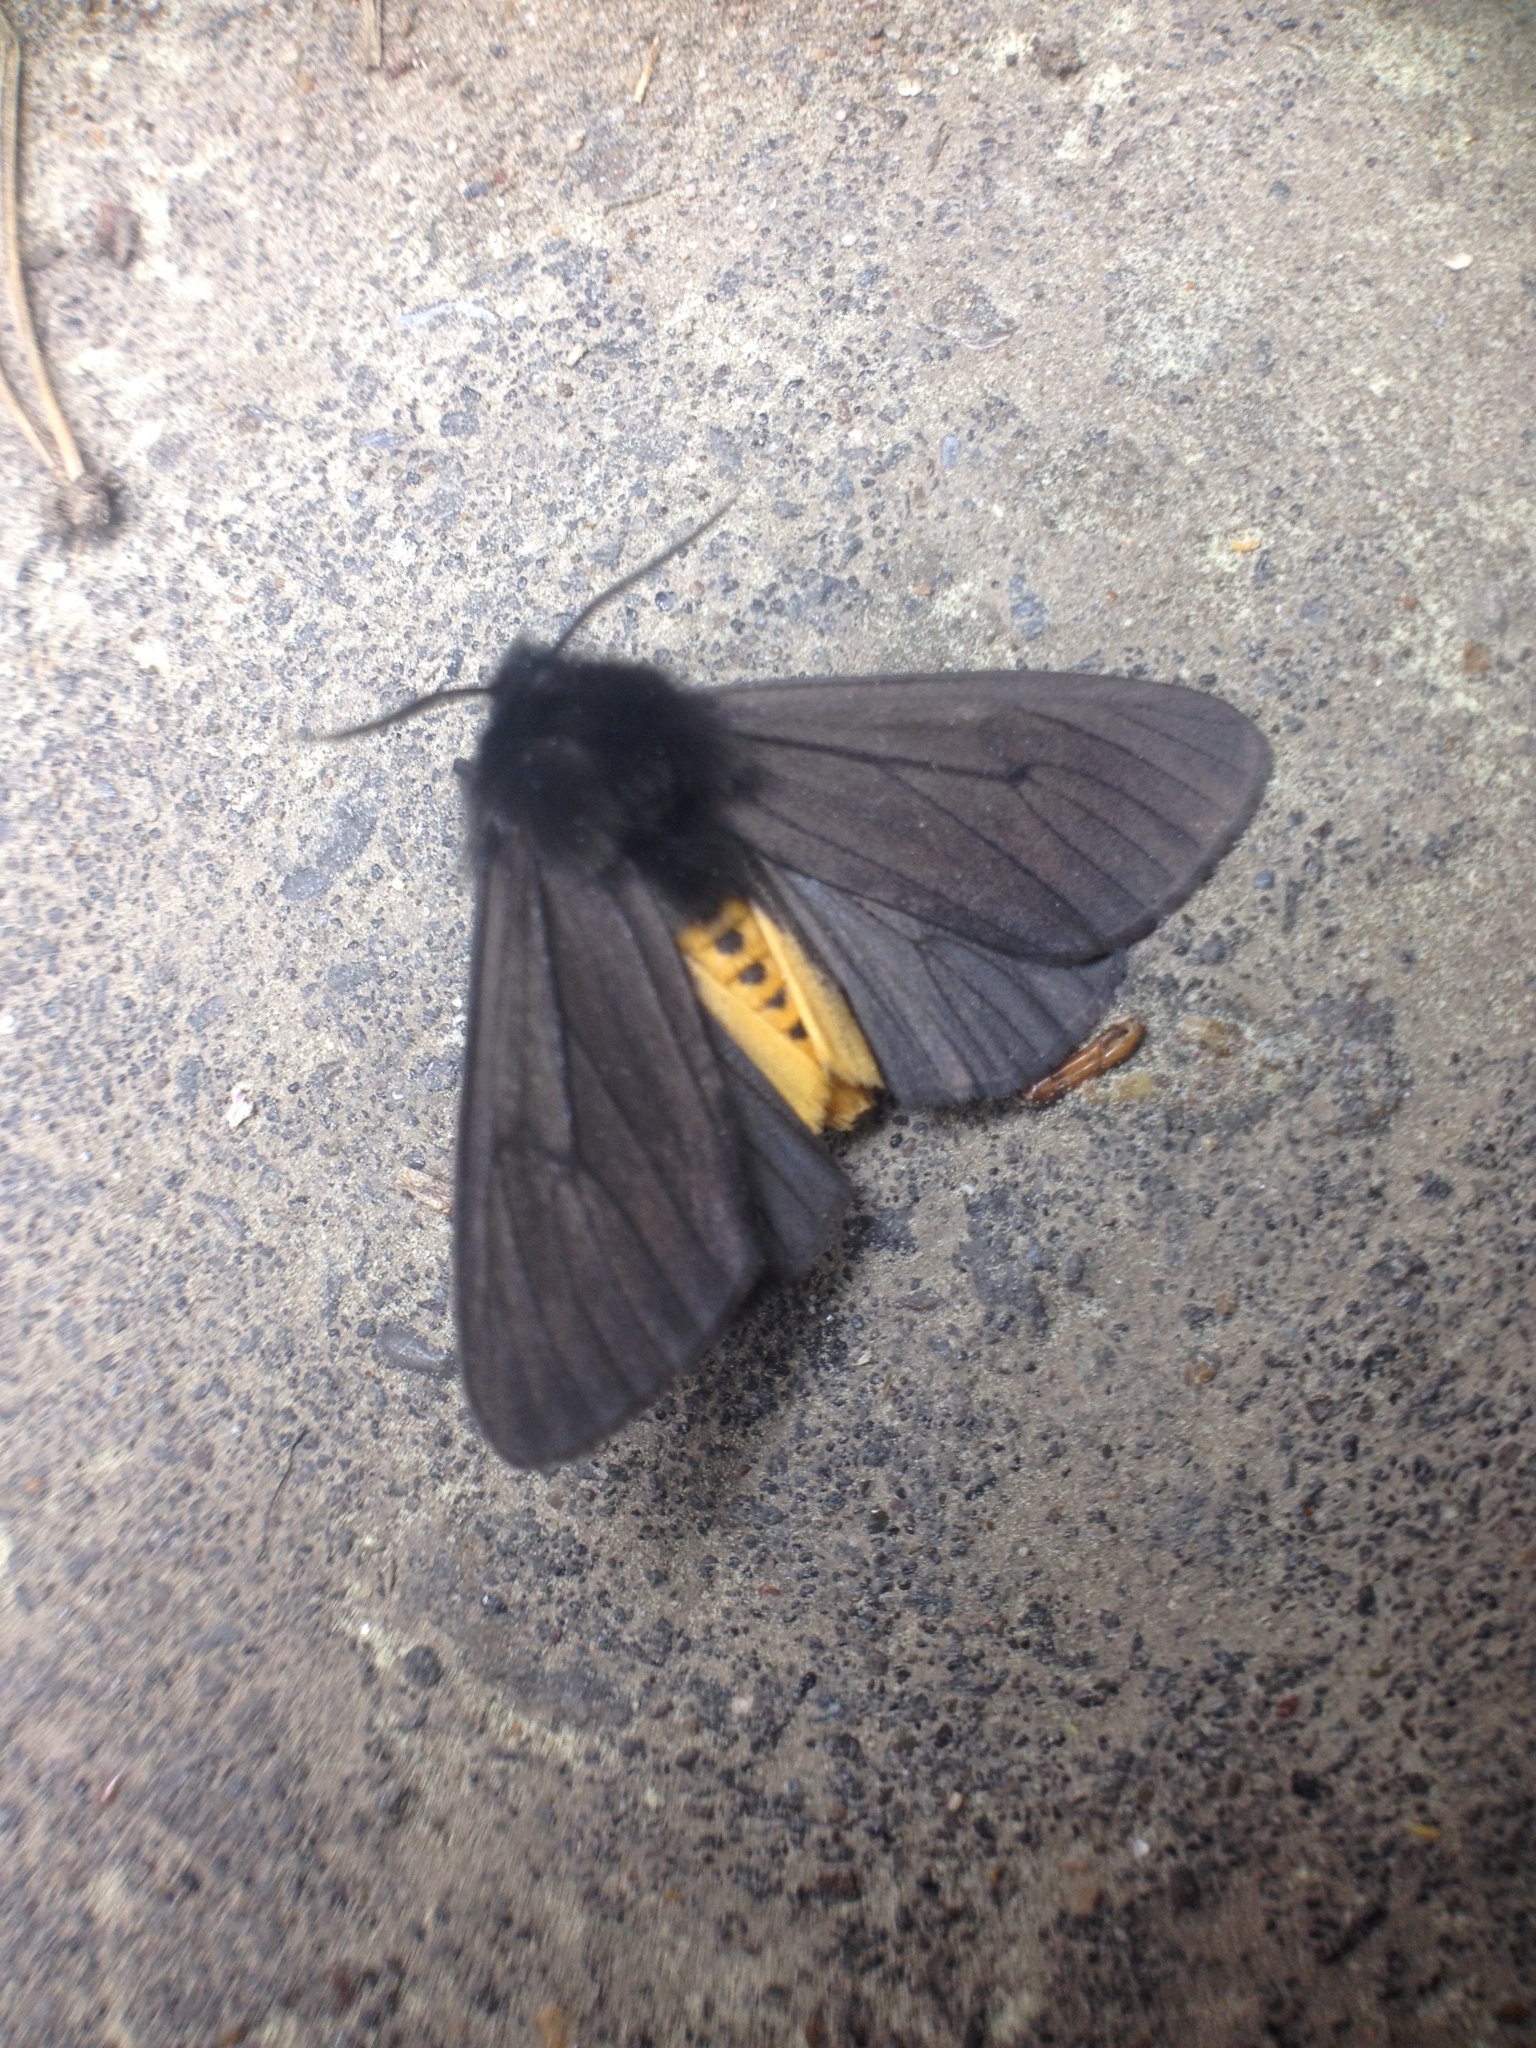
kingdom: Animalia
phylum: Arthropoda
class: Insecta
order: Lepidoptera
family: Erebidae
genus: Epatolmis
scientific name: Epatolmis luctifera
